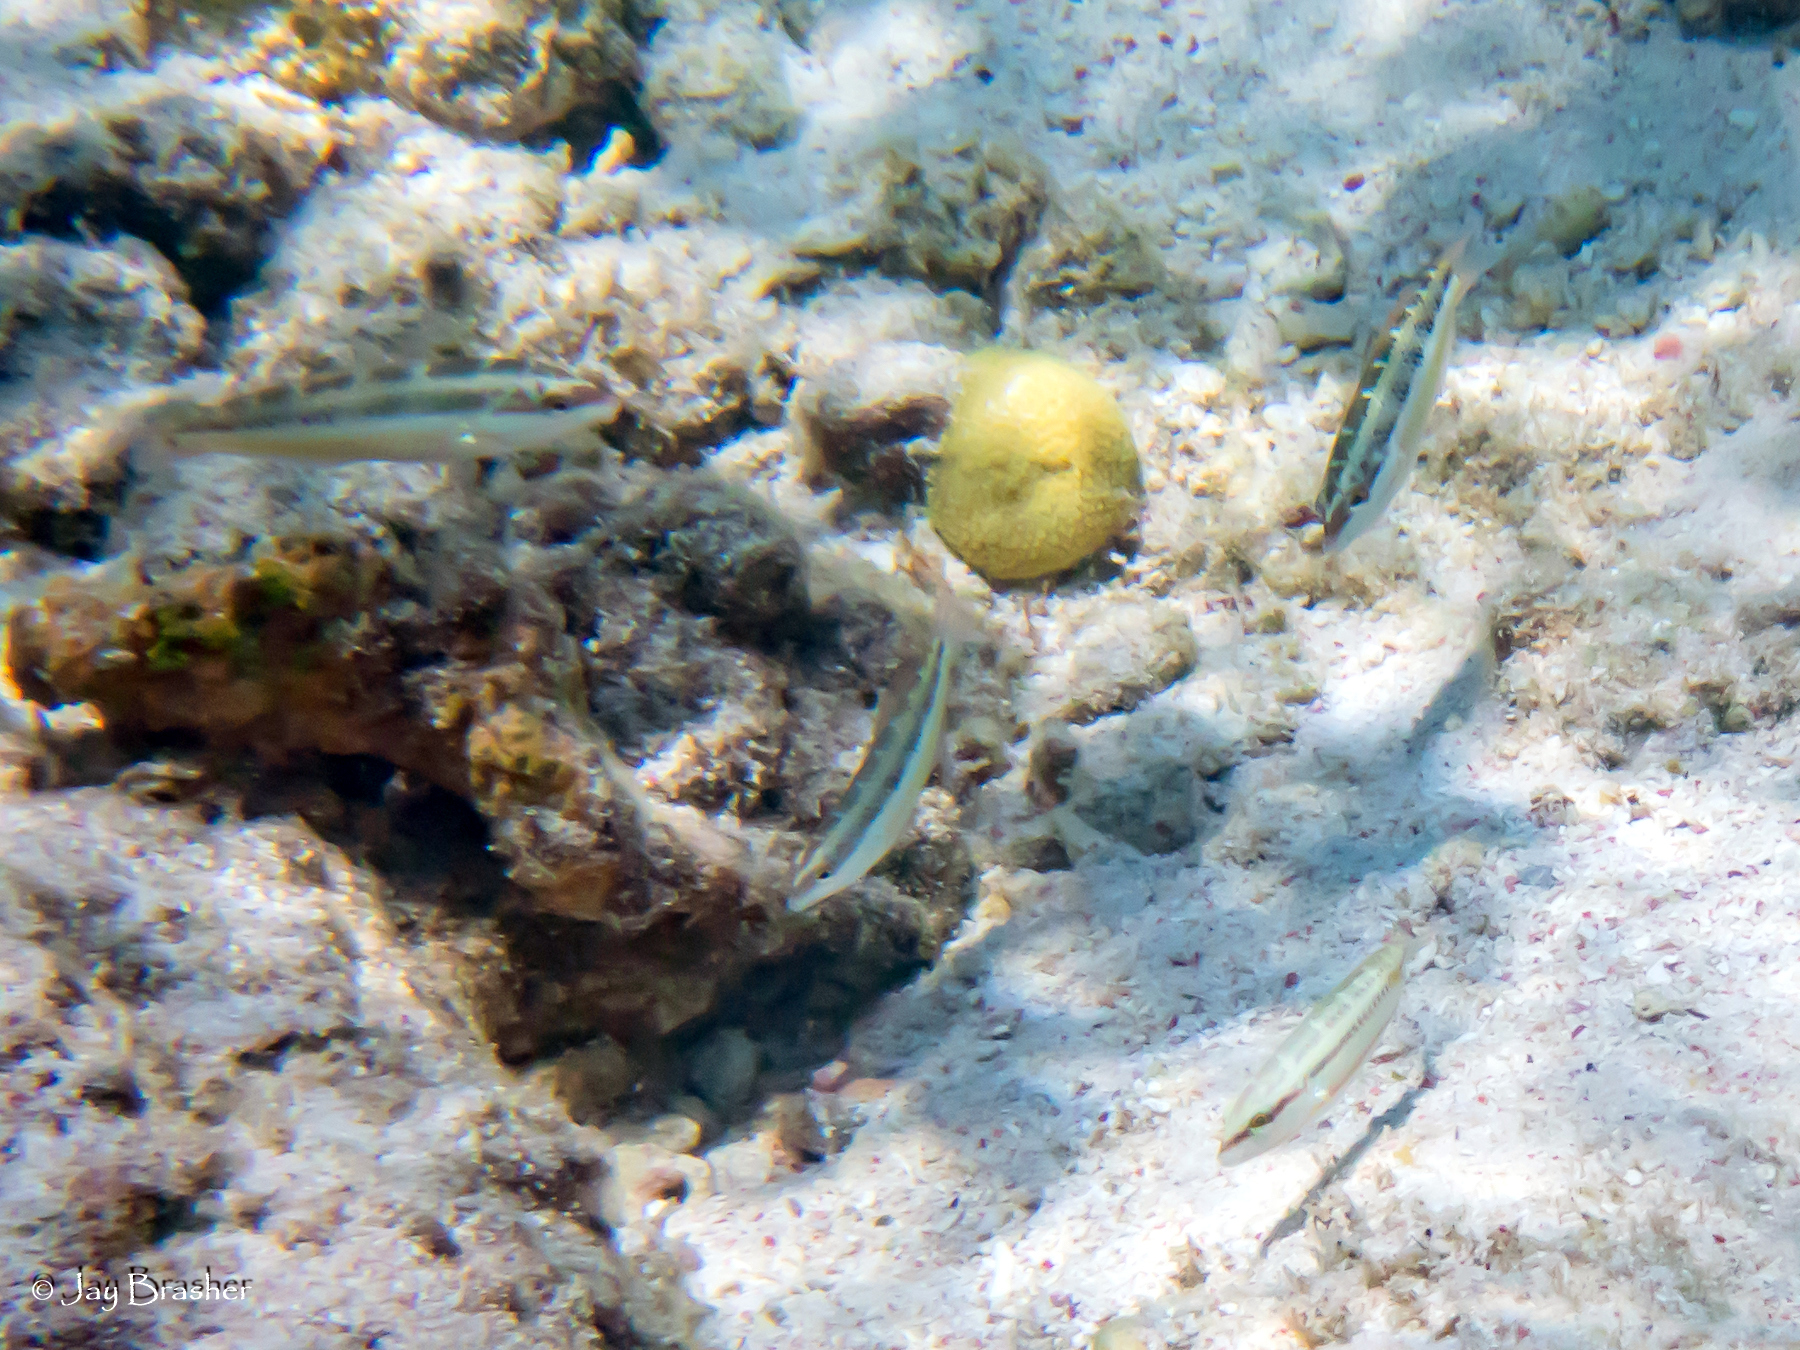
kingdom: Animalia
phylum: Chordata
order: Perciformes
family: Labridae
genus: Halichoeres
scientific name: Halichoeres bivittatus
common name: Slippery dick
